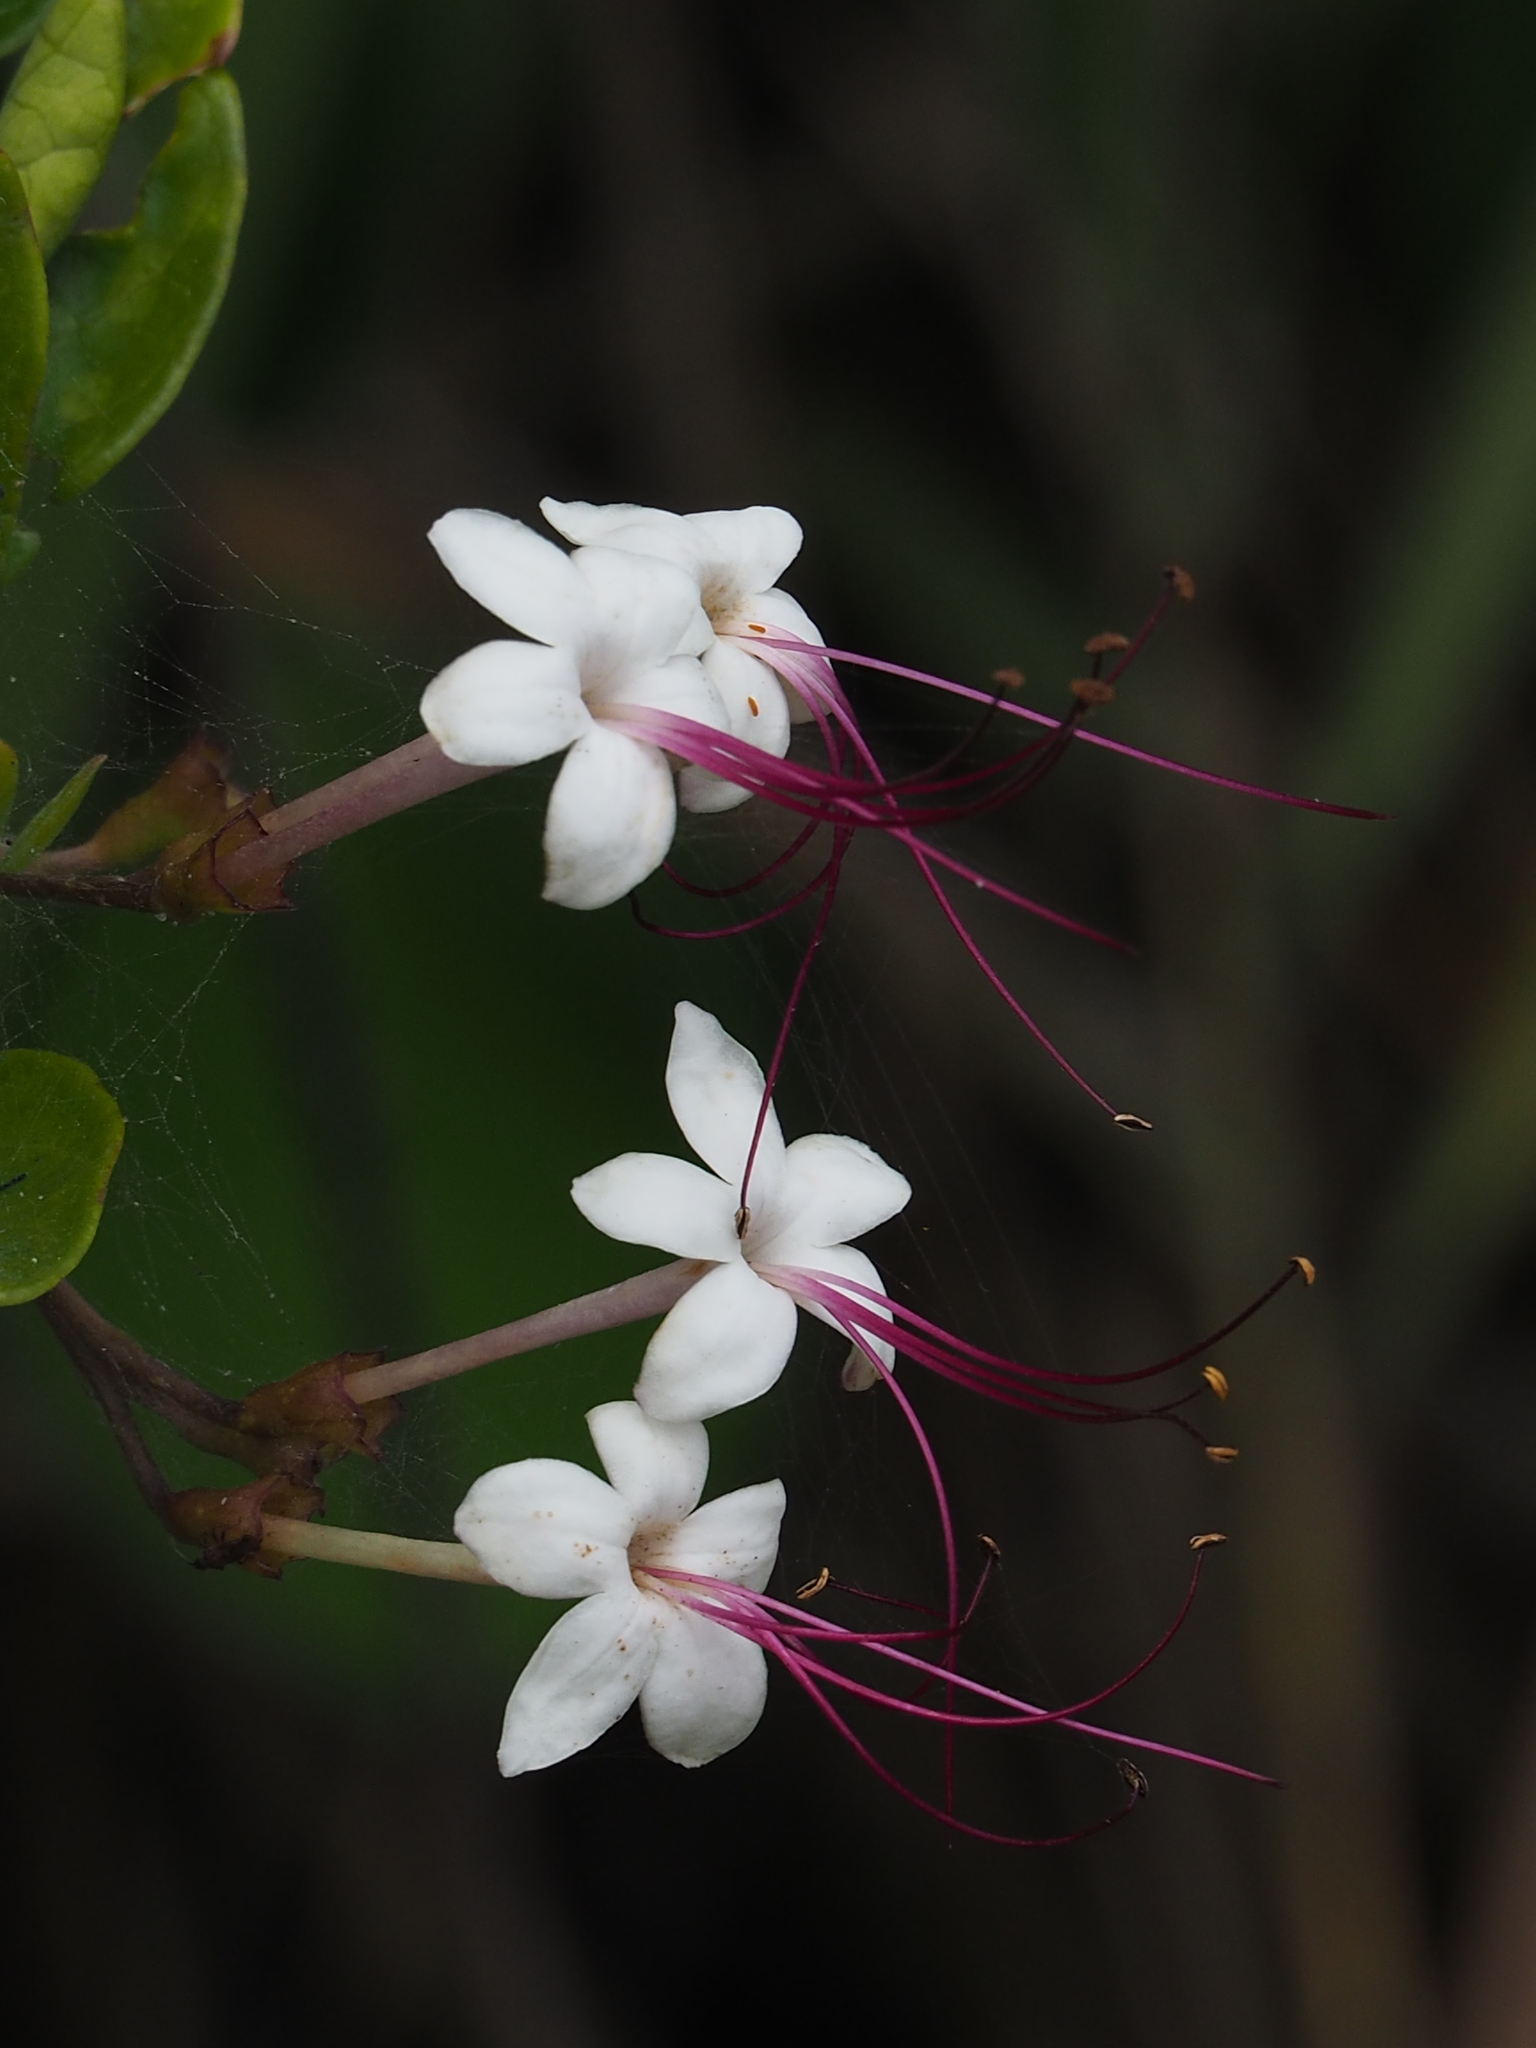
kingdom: Plantae
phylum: Tracheophyta
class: Magnoliopsida
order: Lamiales
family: Lamiaceae
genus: Volkameria
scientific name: Volkameria inermis
